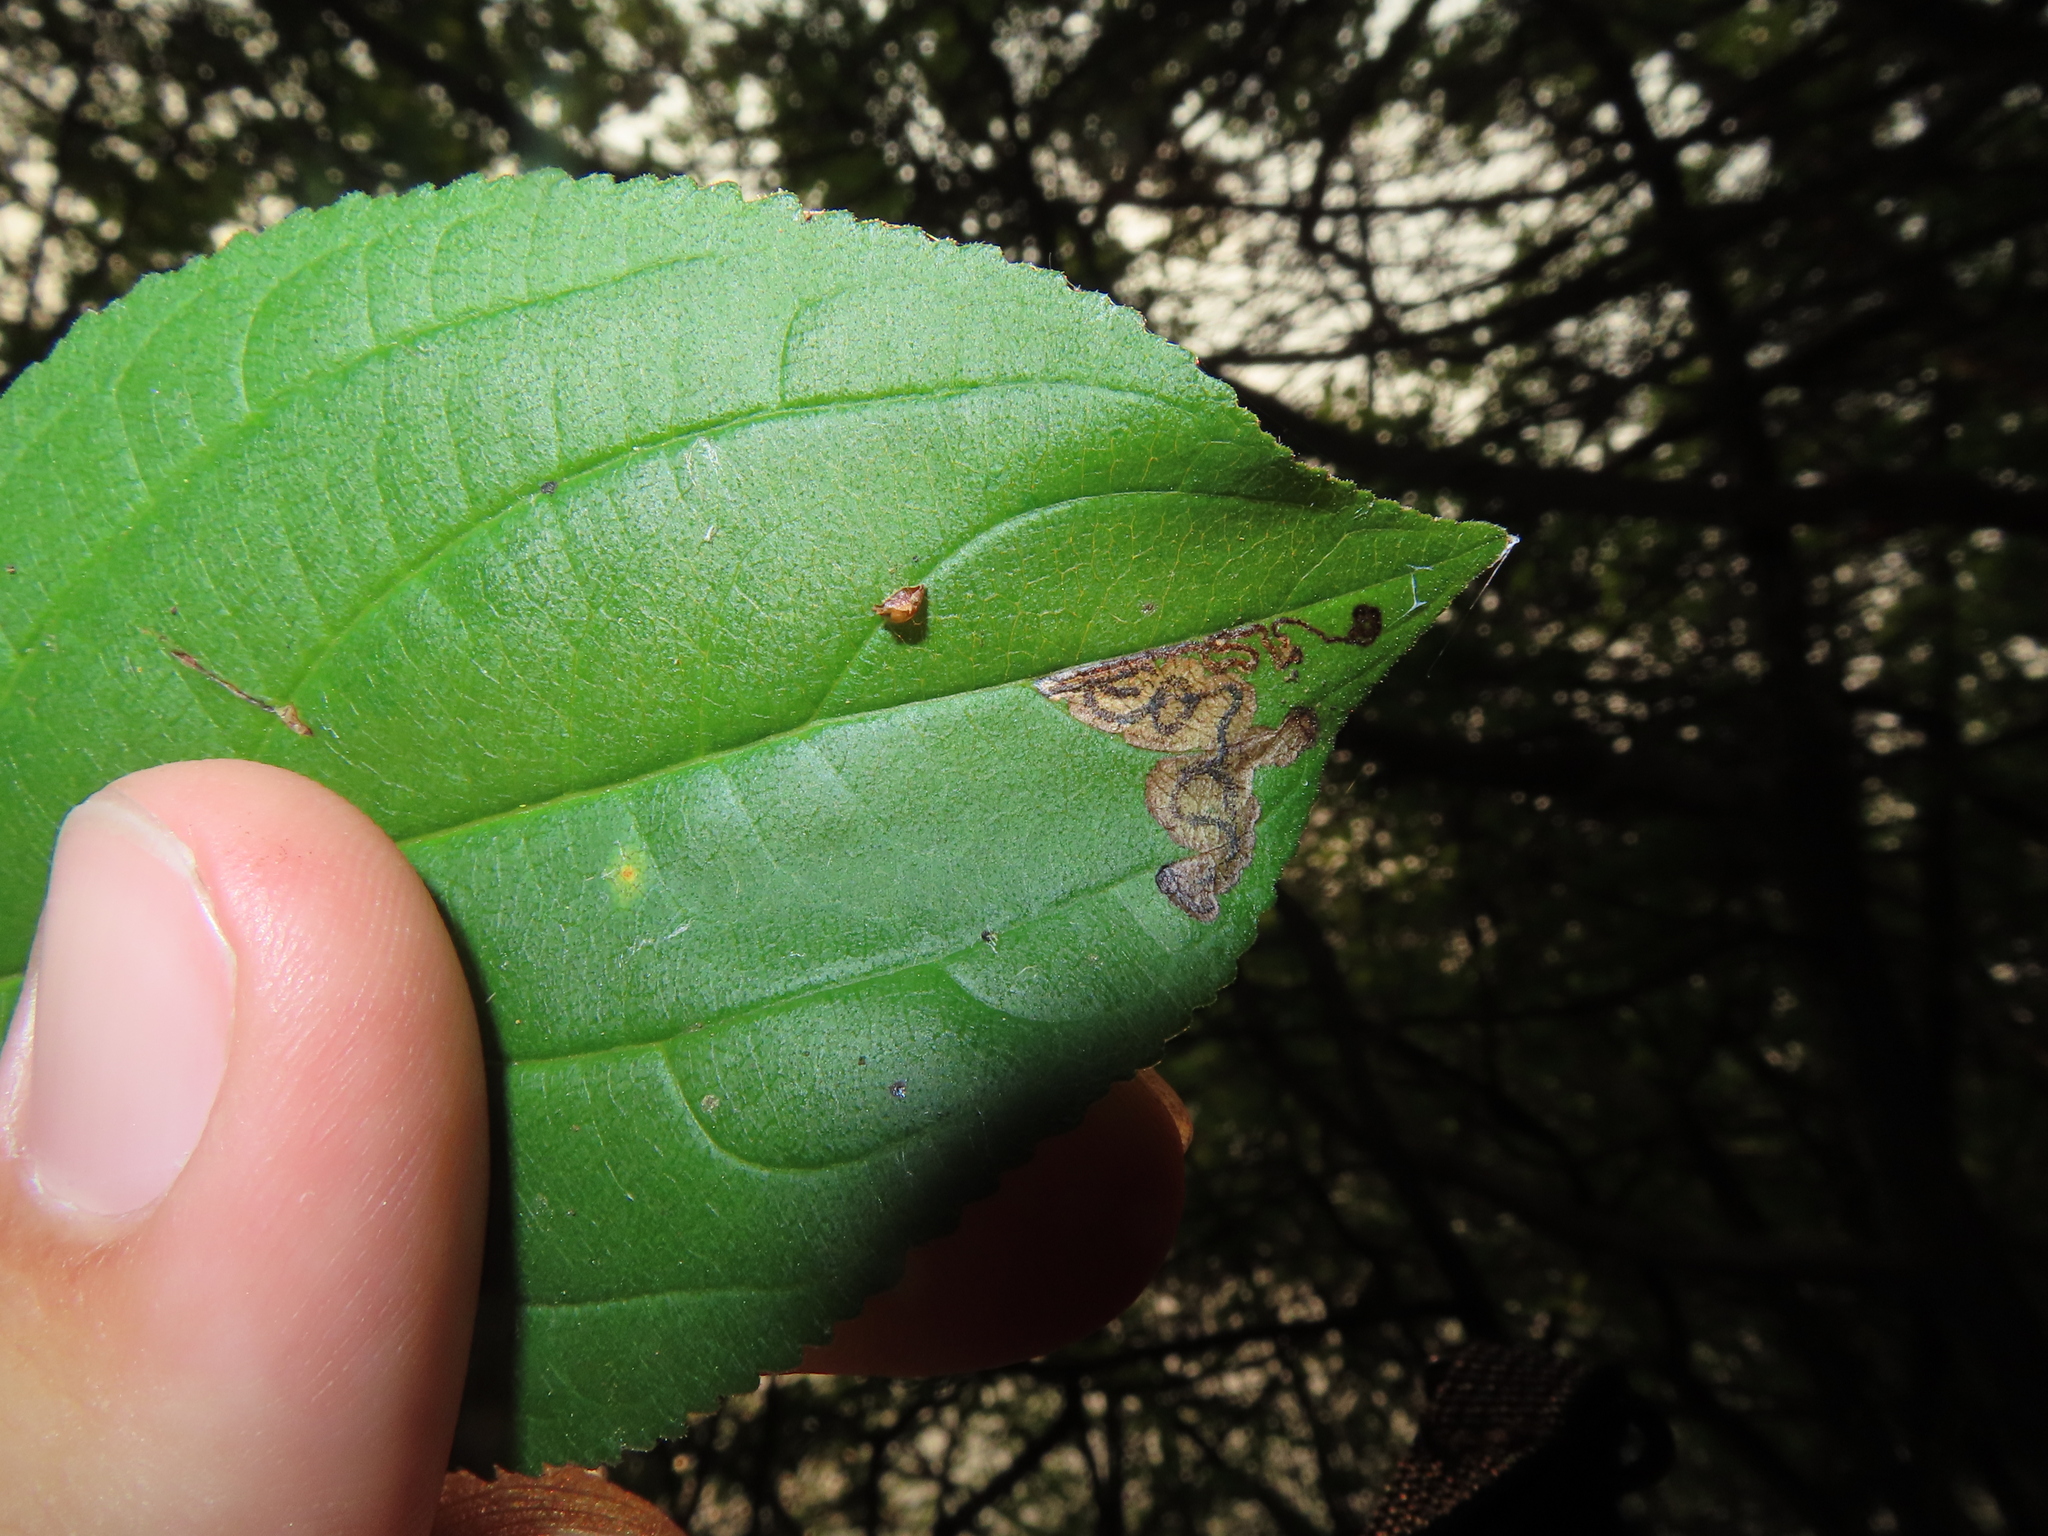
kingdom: Animalia
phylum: Arthropoda
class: Insecta
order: Lepidoptera
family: Nepticulidae
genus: Stigmella
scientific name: Stigmella rhamnicola
